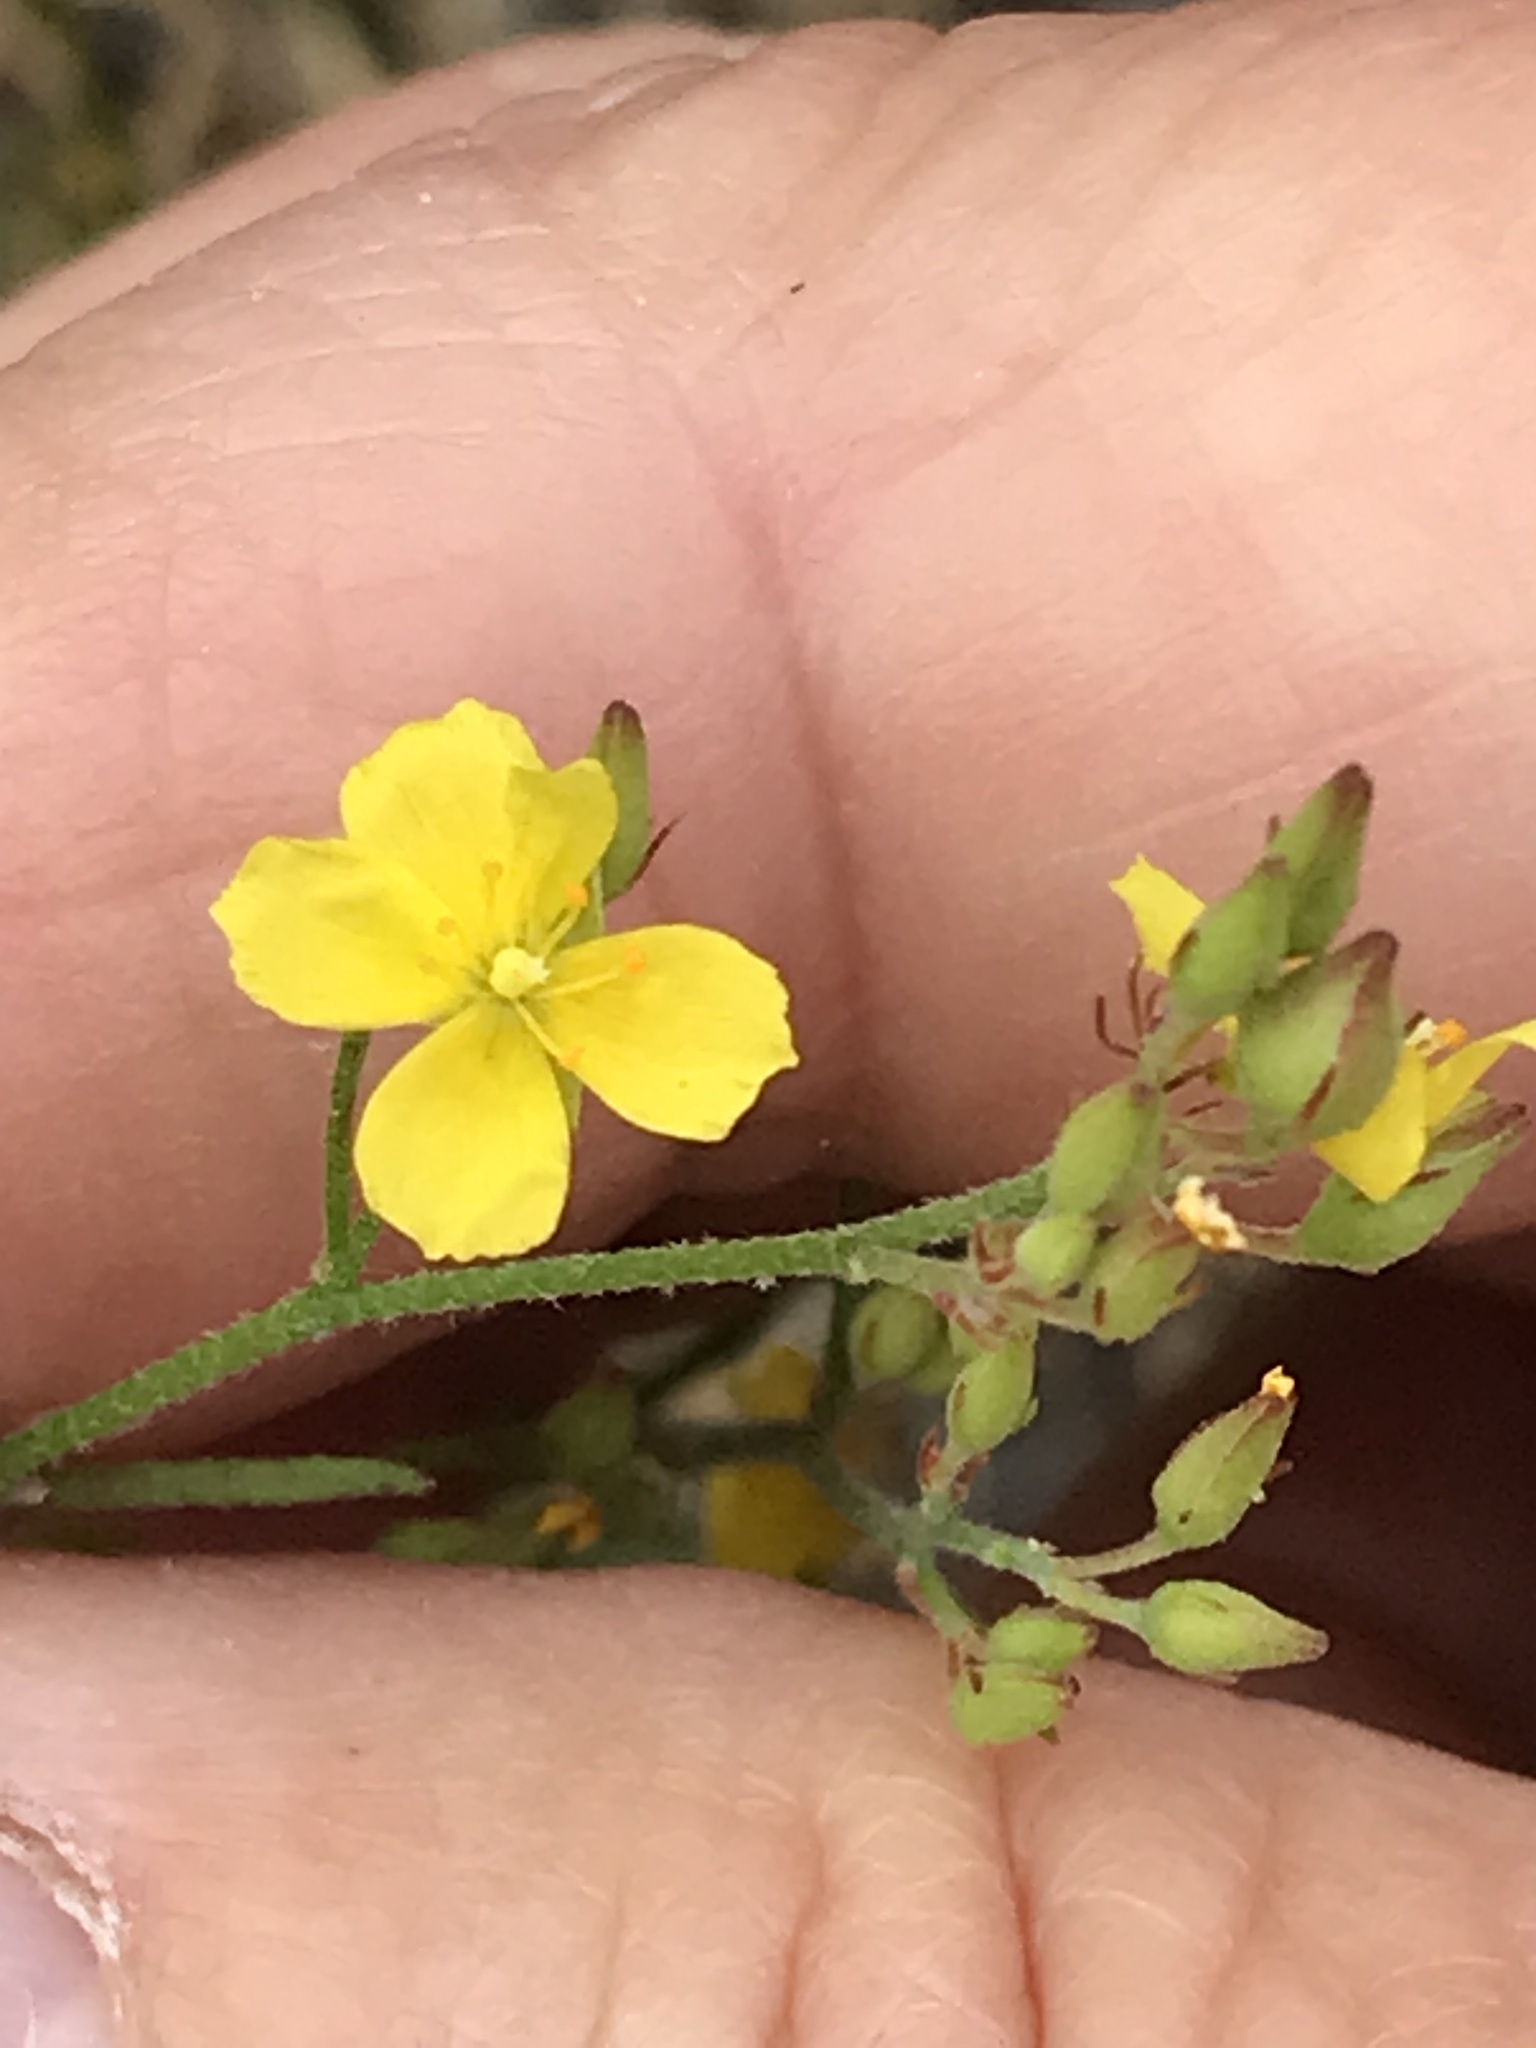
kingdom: Plantae
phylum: Tracheophyta
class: Magnoliopsida
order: Malvales
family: Cistaceae
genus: Crocanthemum
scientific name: Crocanthemum scoparium
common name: Broom-rose
